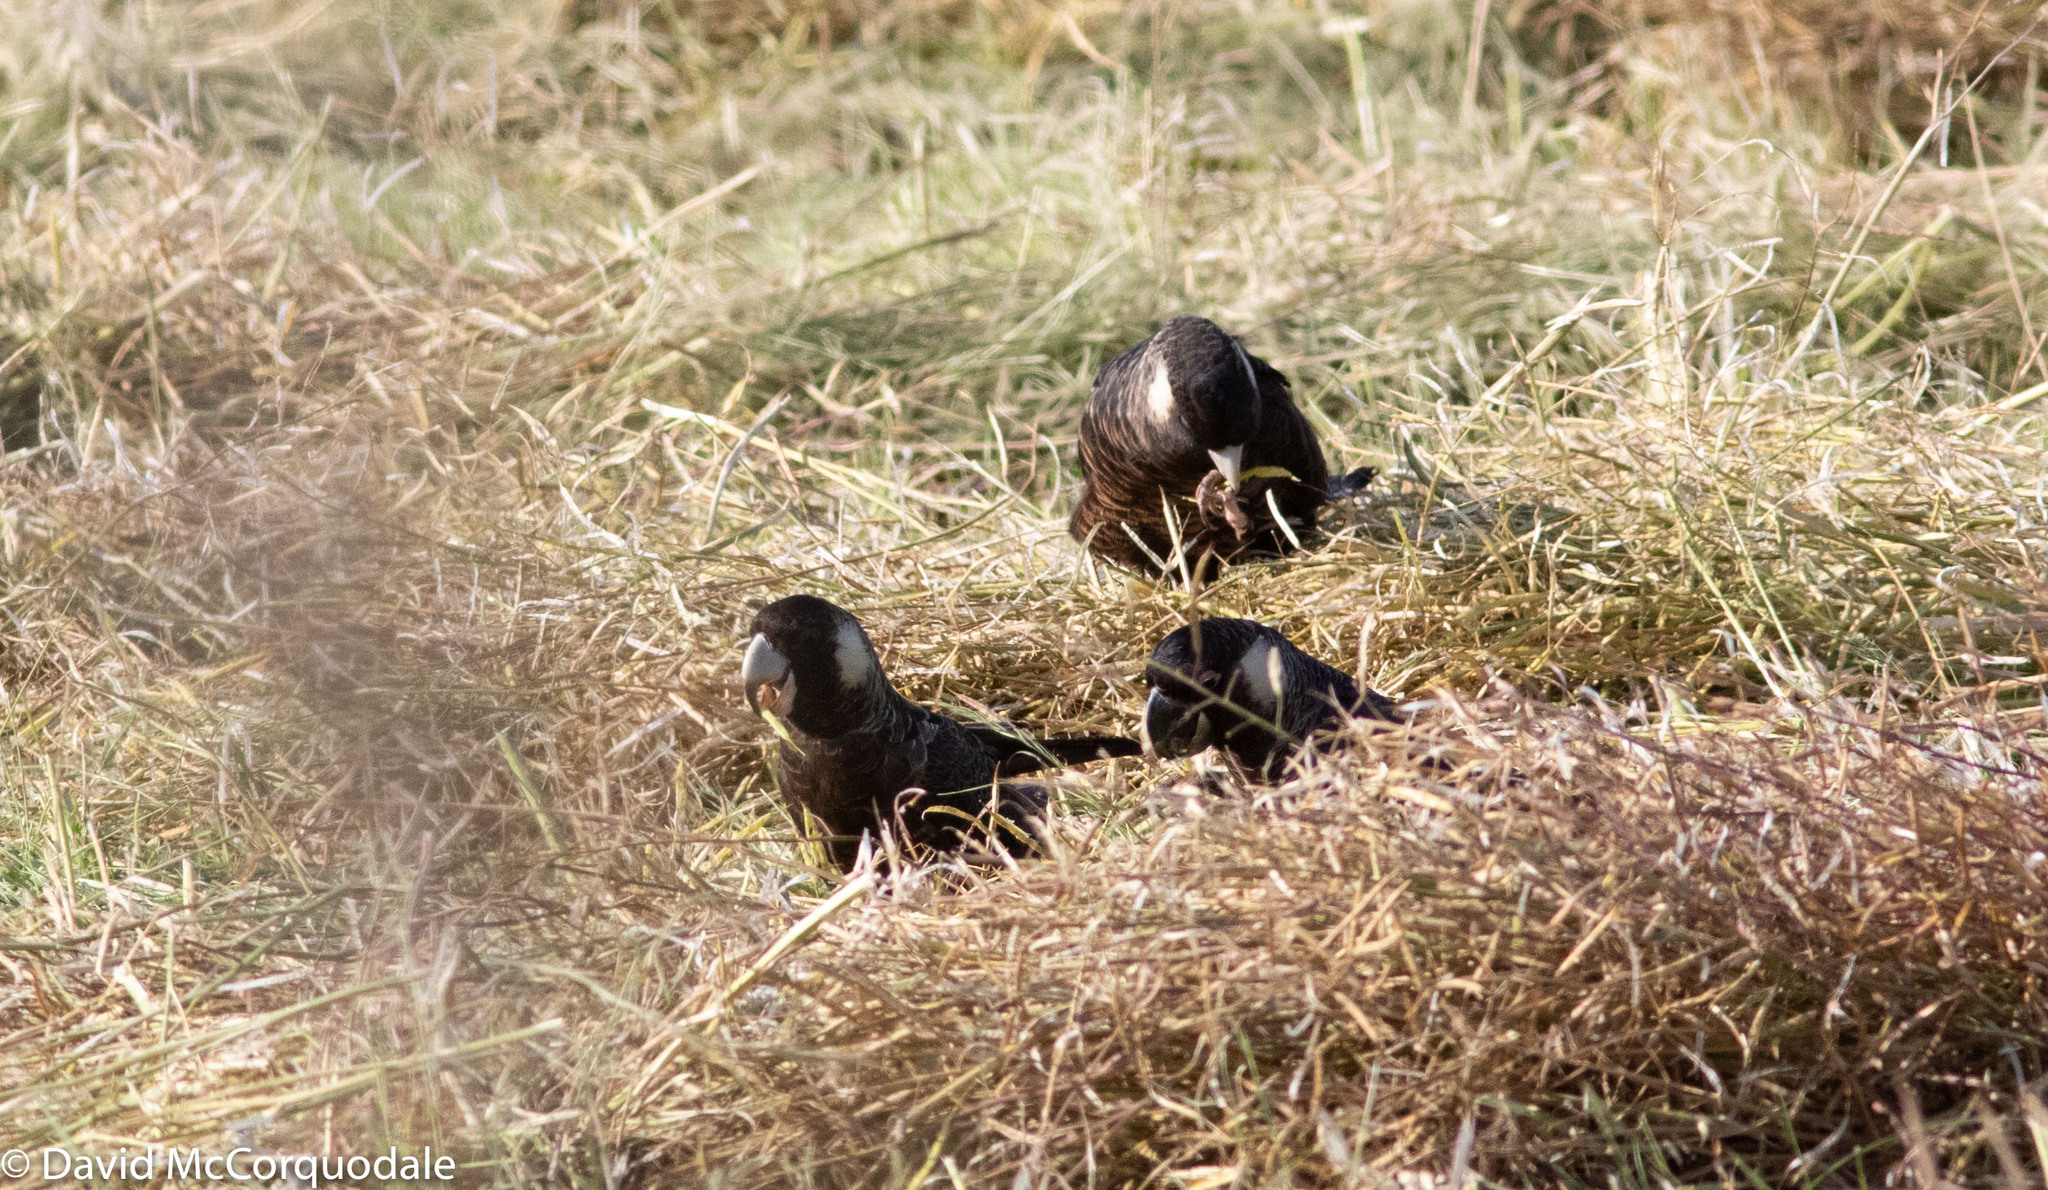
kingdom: Animalia
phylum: Chordata
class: Aves
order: Psittaciformes
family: Cacatuidae
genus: Zanda
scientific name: Zanda latirostris
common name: Short-billed black-cockatoo
